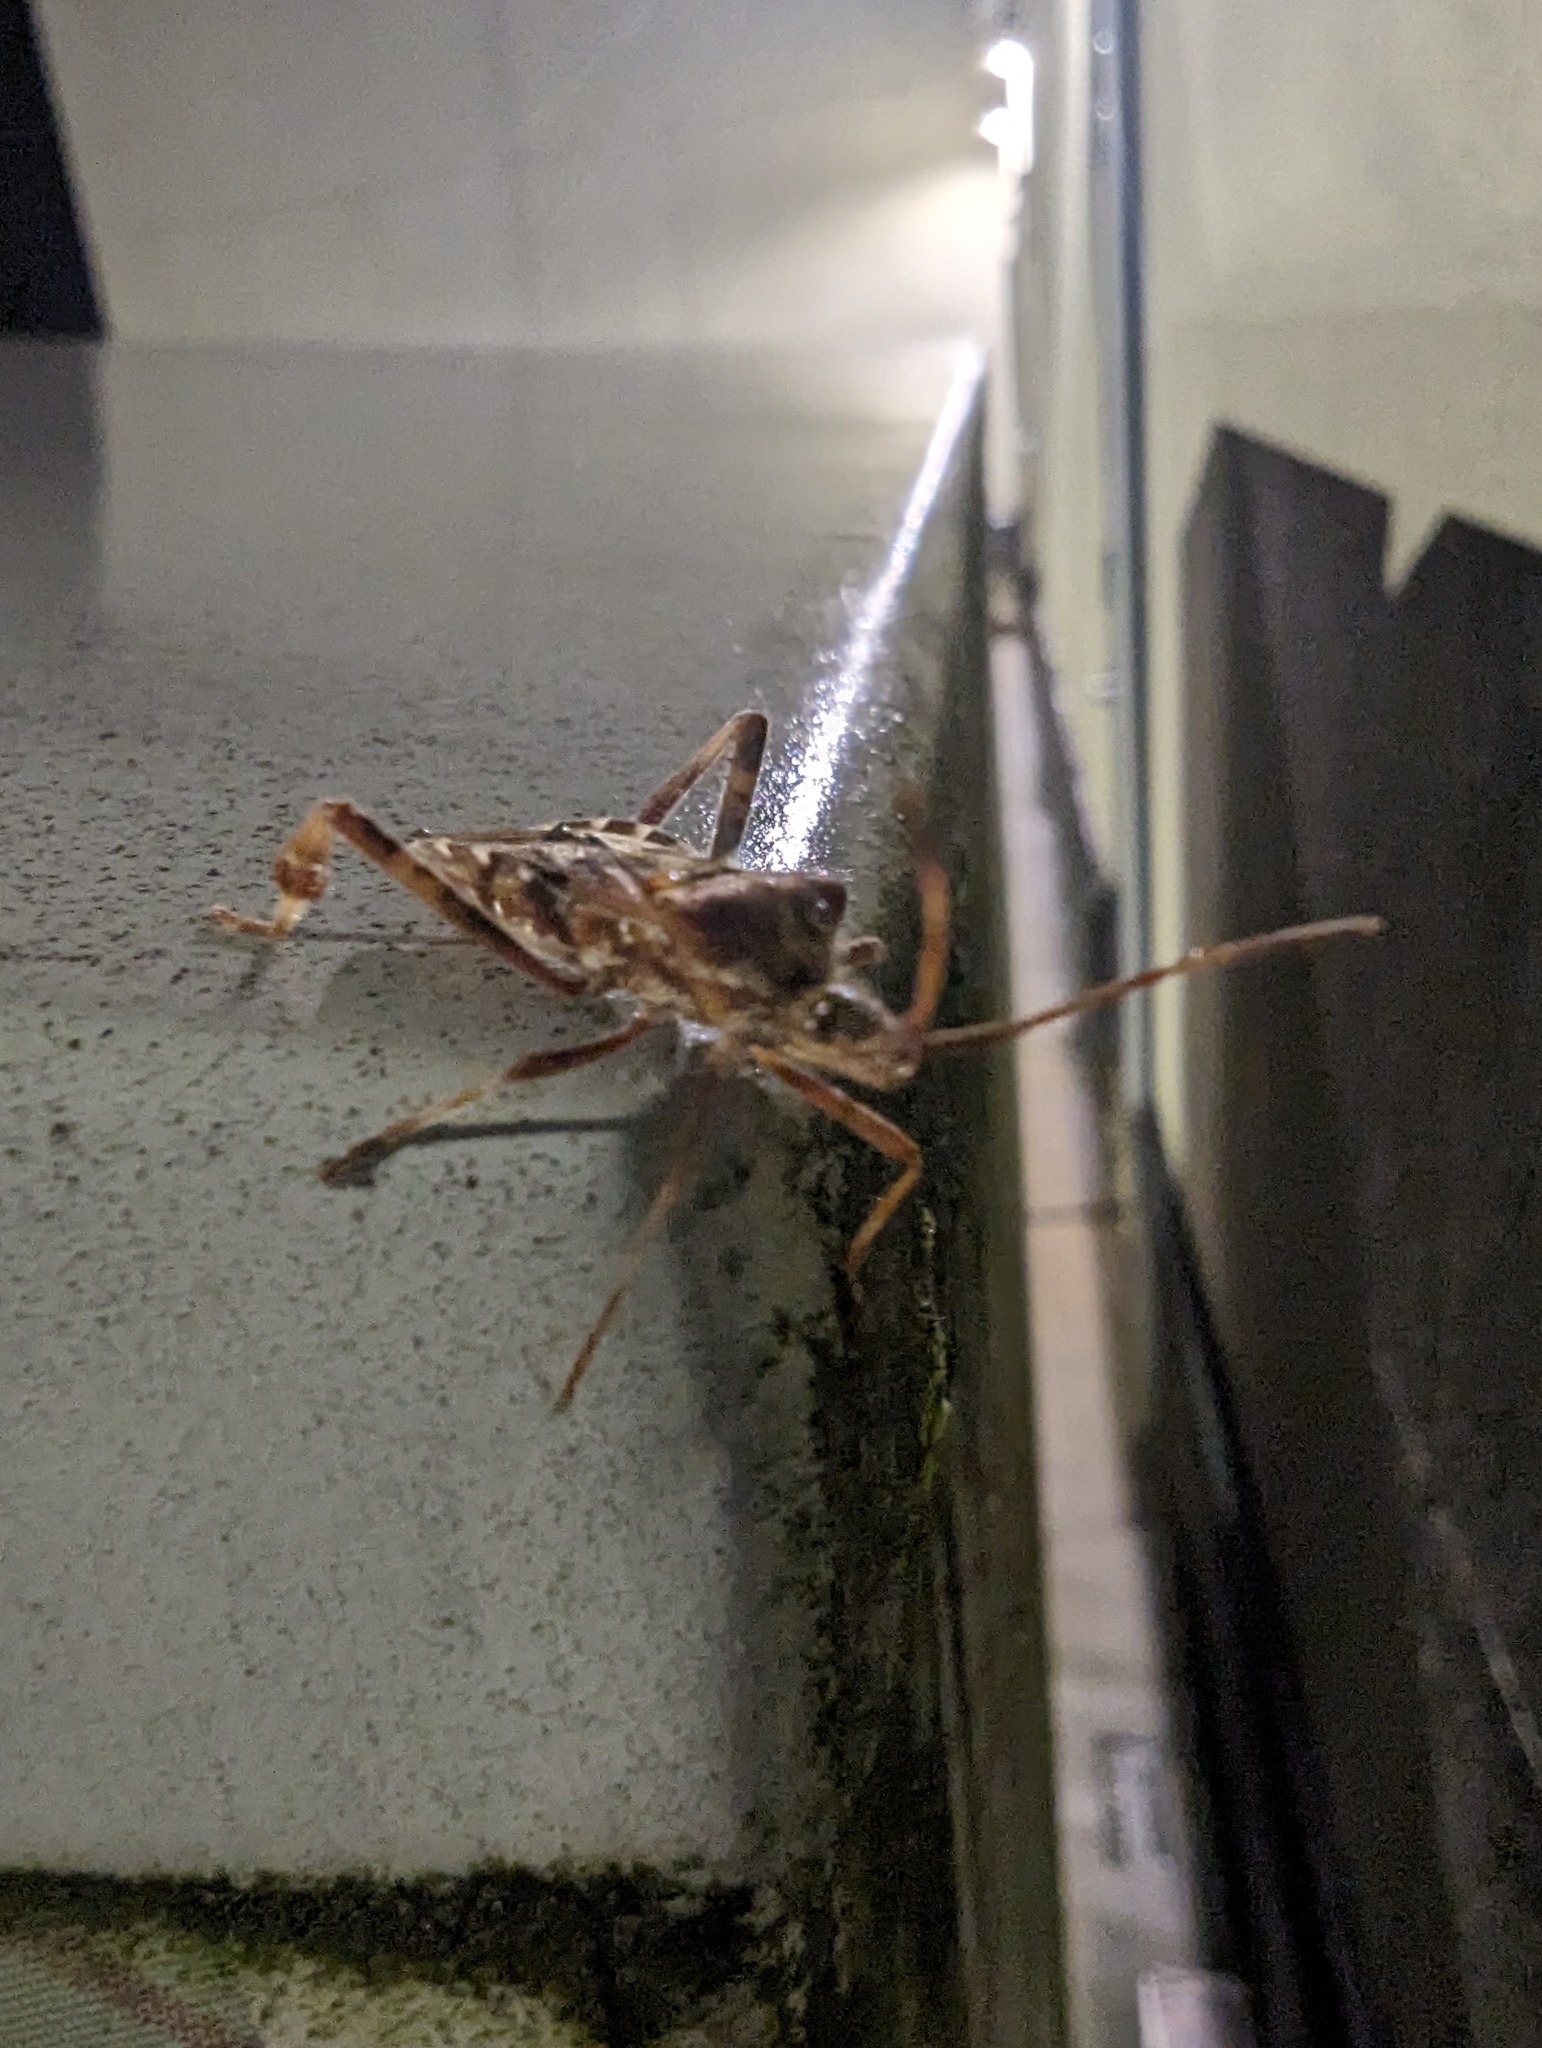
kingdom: Animalia
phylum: Arthropoda
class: Insecta
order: Hemiptera
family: Coreidae
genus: Leptoglossus
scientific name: Leptoglossus occidentalis
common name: Western conifer-seed bug
